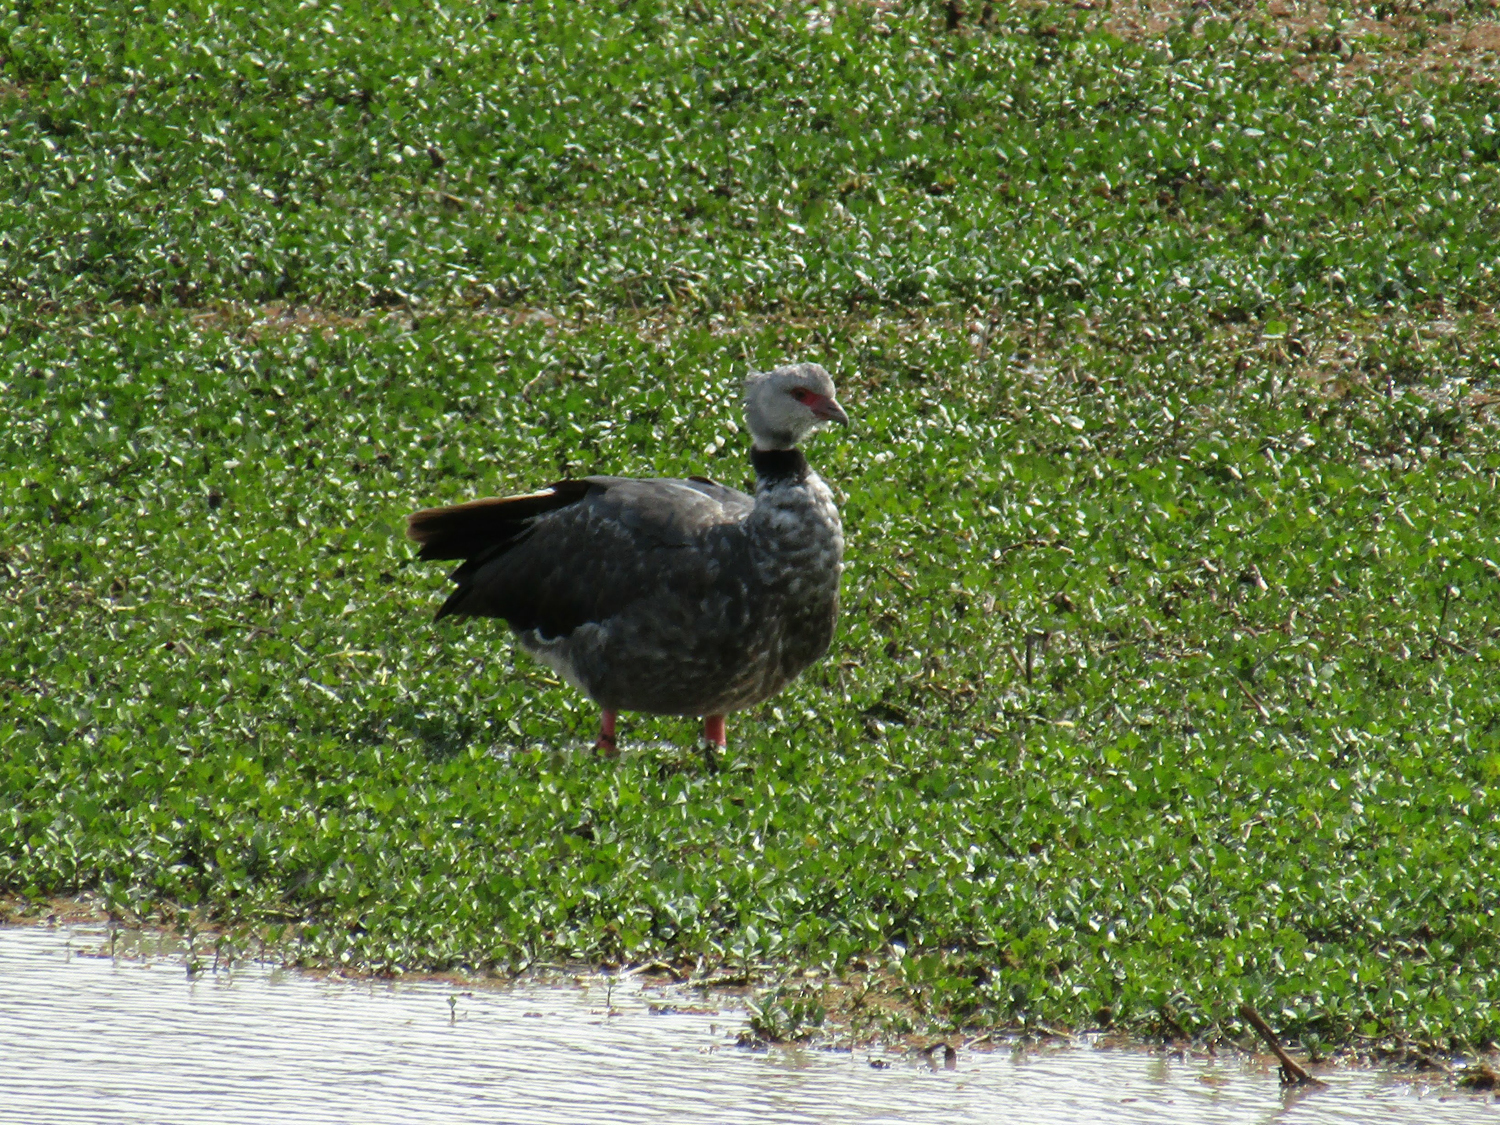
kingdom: Animalia
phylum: Chordata
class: Aves
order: Anseriformes
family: Anhimidae
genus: Chauna
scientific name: Chauna torquata
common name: Southern screamer
